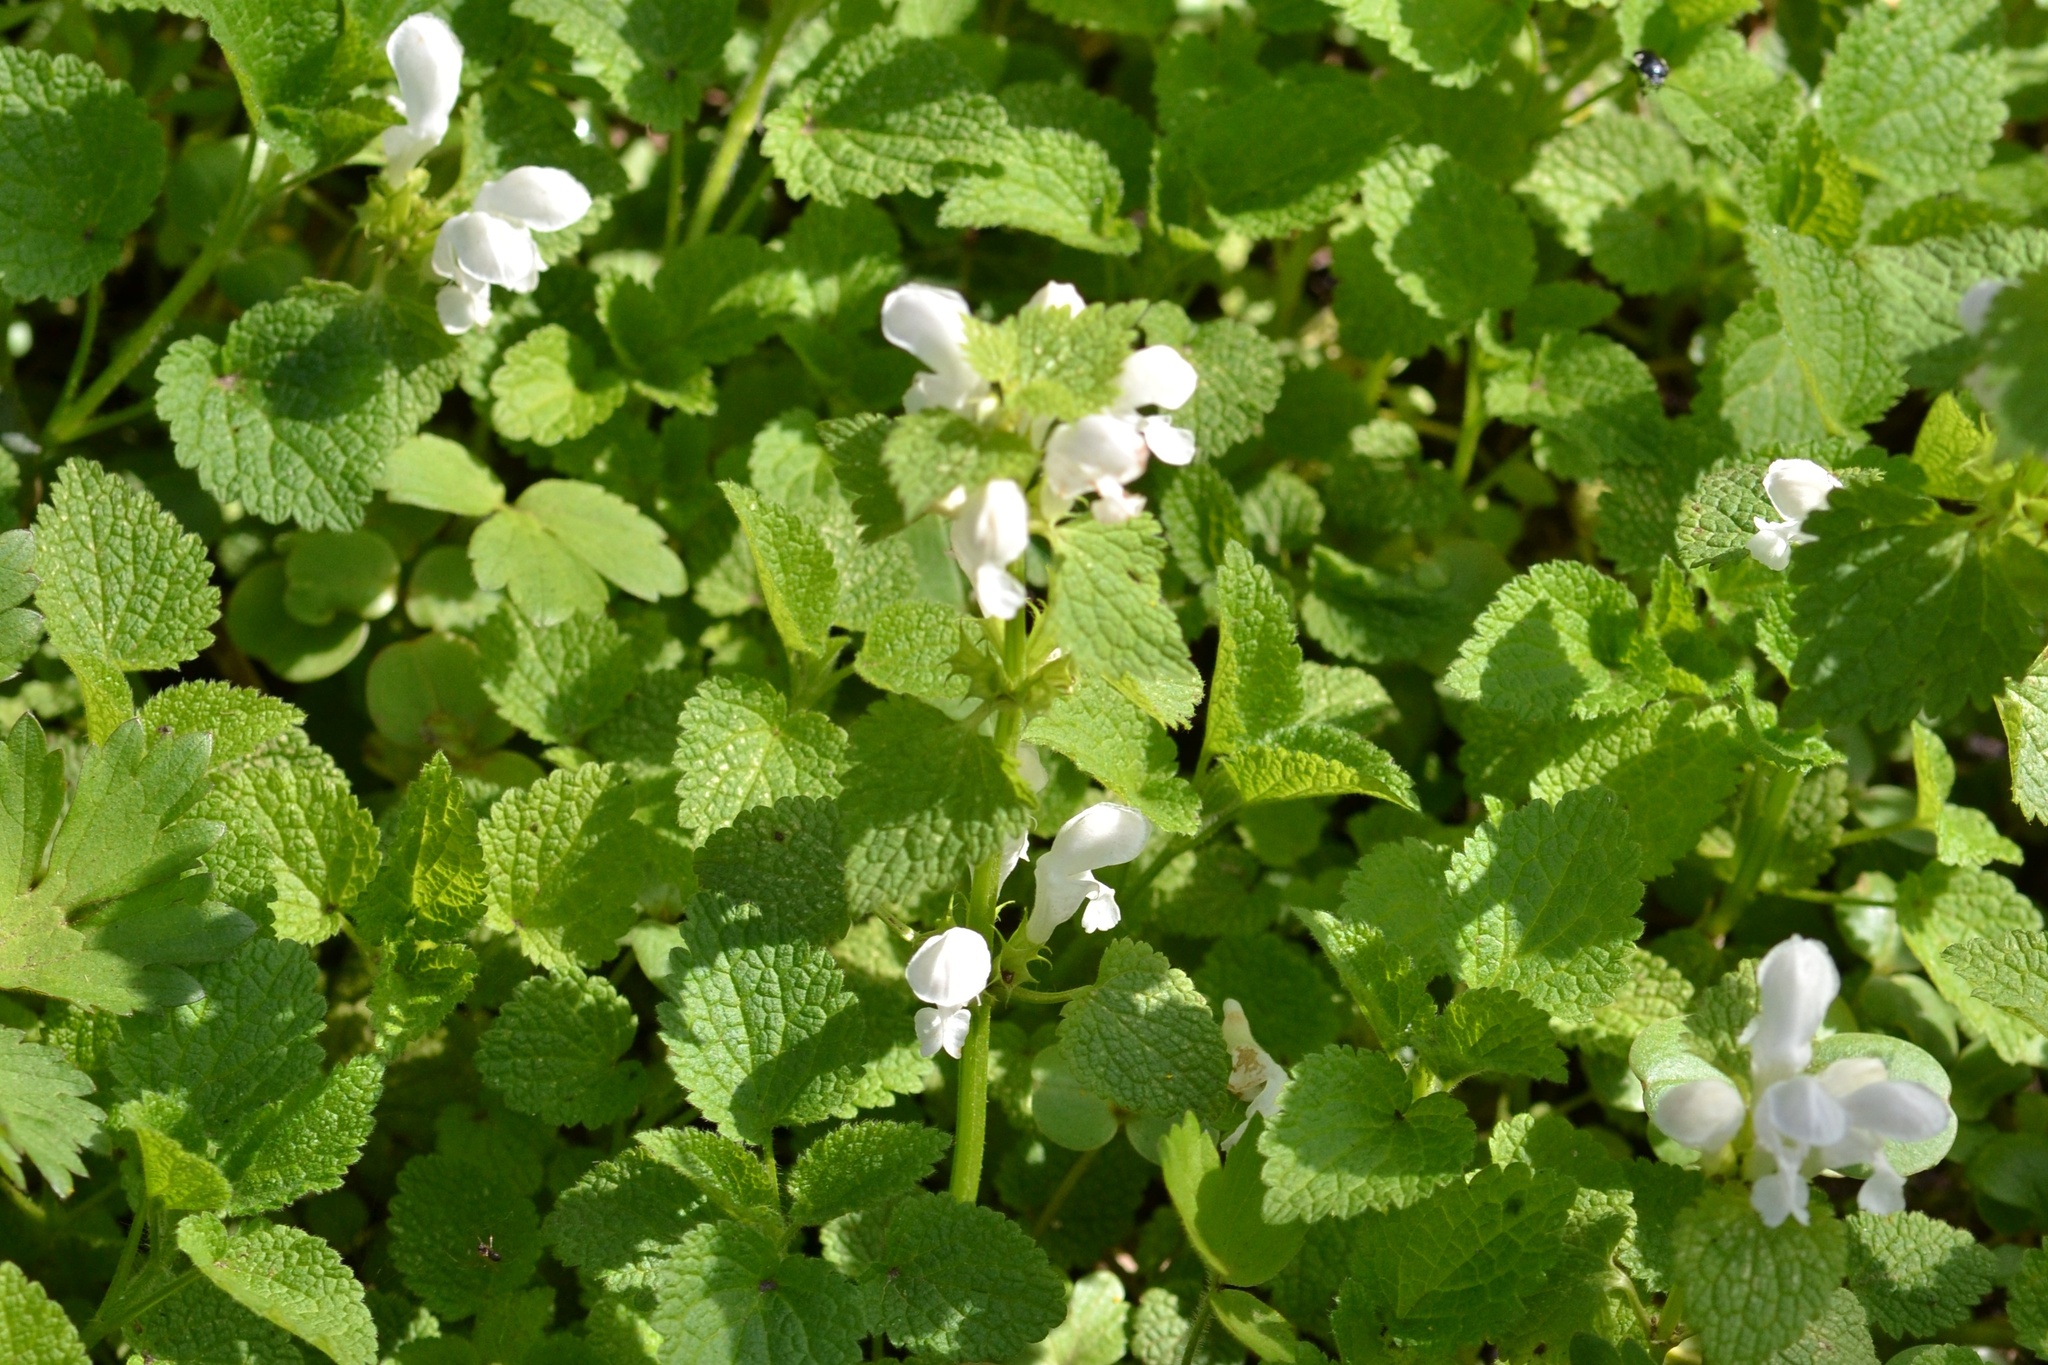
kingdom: Plantae
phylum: Tracheophyta
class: Magnoliopsida
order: Lamiales
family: Lamiaceae
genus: Lamium
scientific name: Lamium album
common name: White dead-nettle
